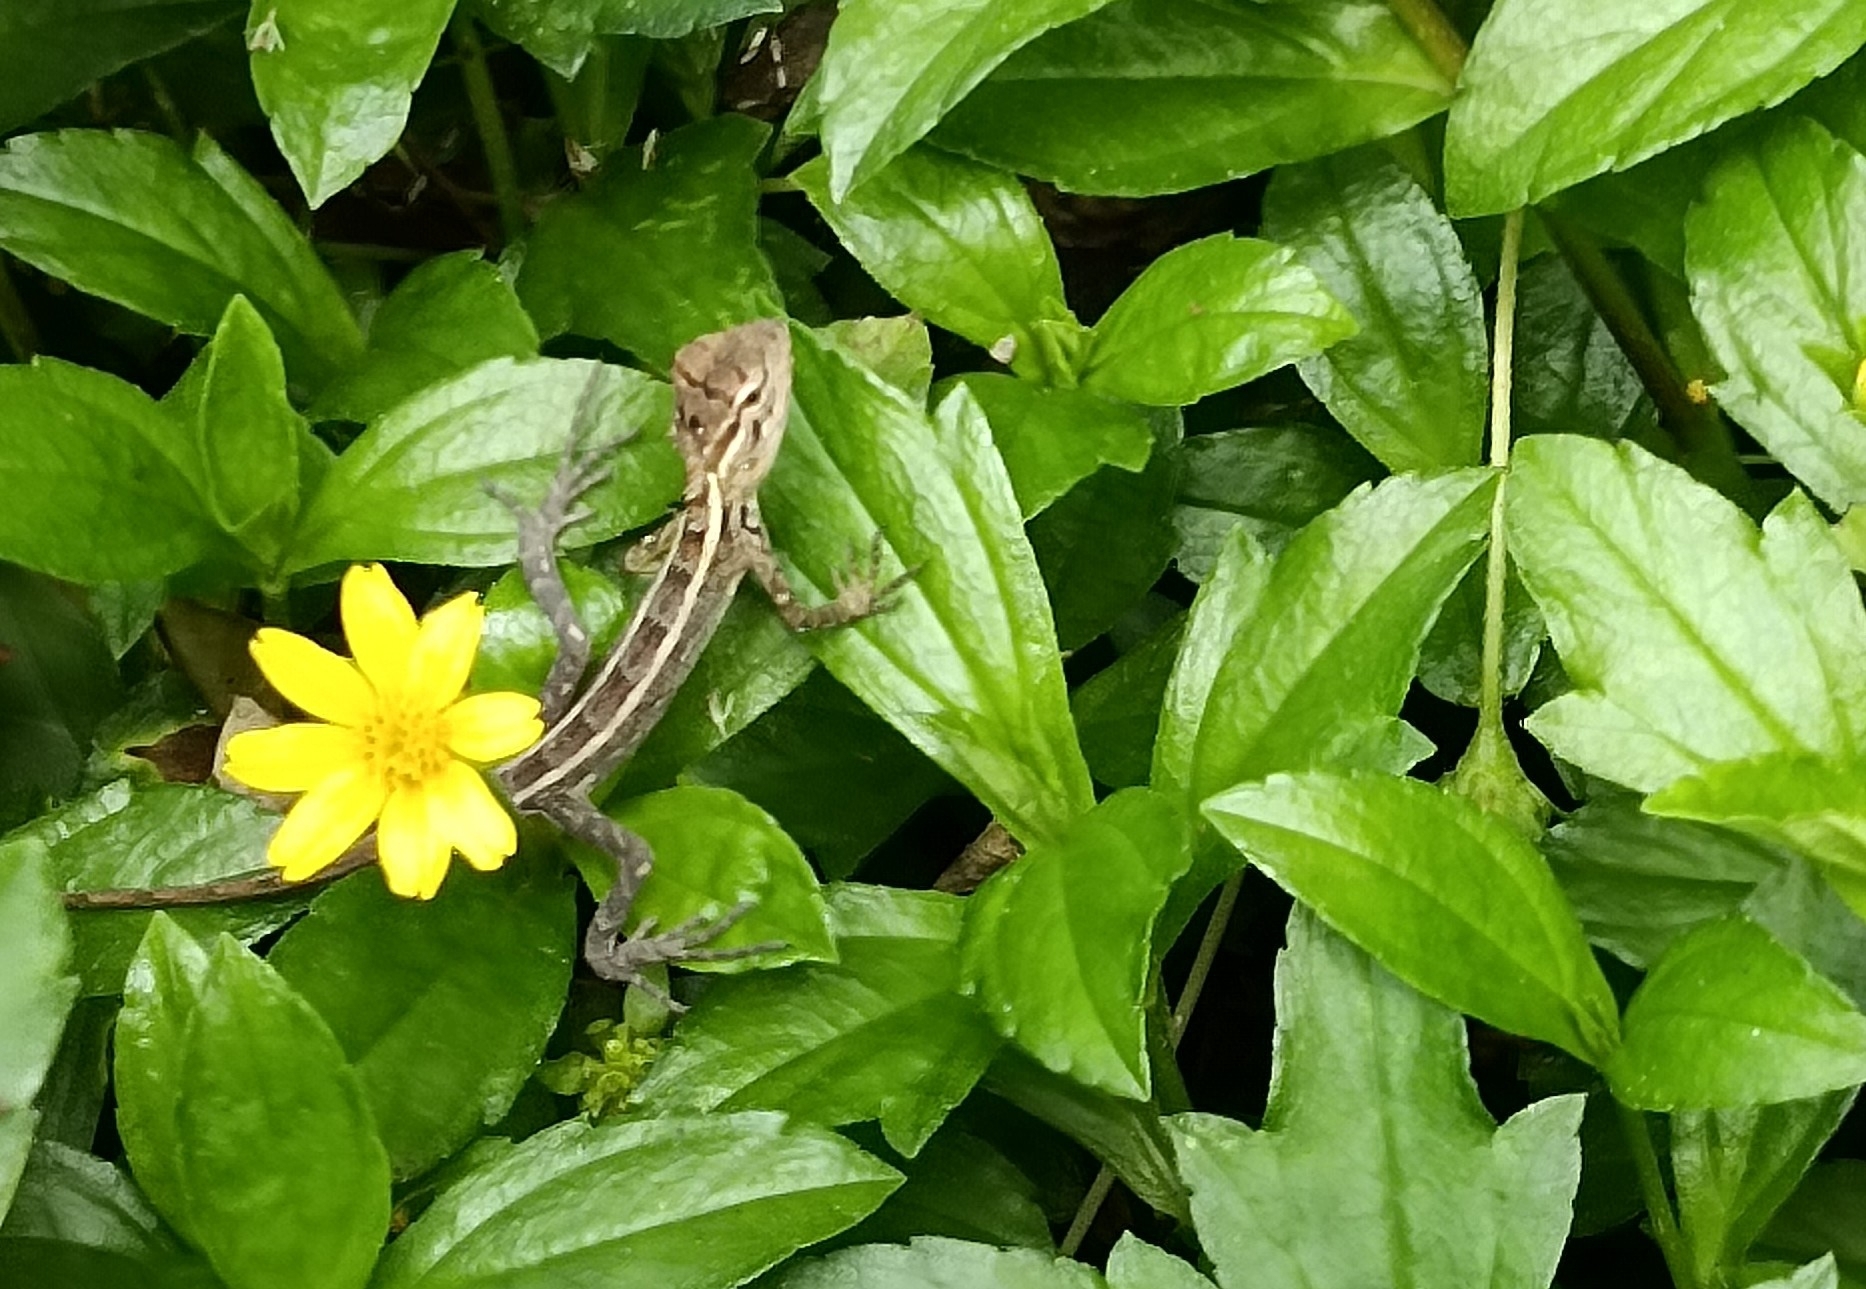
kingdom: Animalia
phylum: Chordata
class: Squamata
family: Agamidae
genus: Calotes
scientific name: Calotes versicolor
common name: Oriental garden lizard
